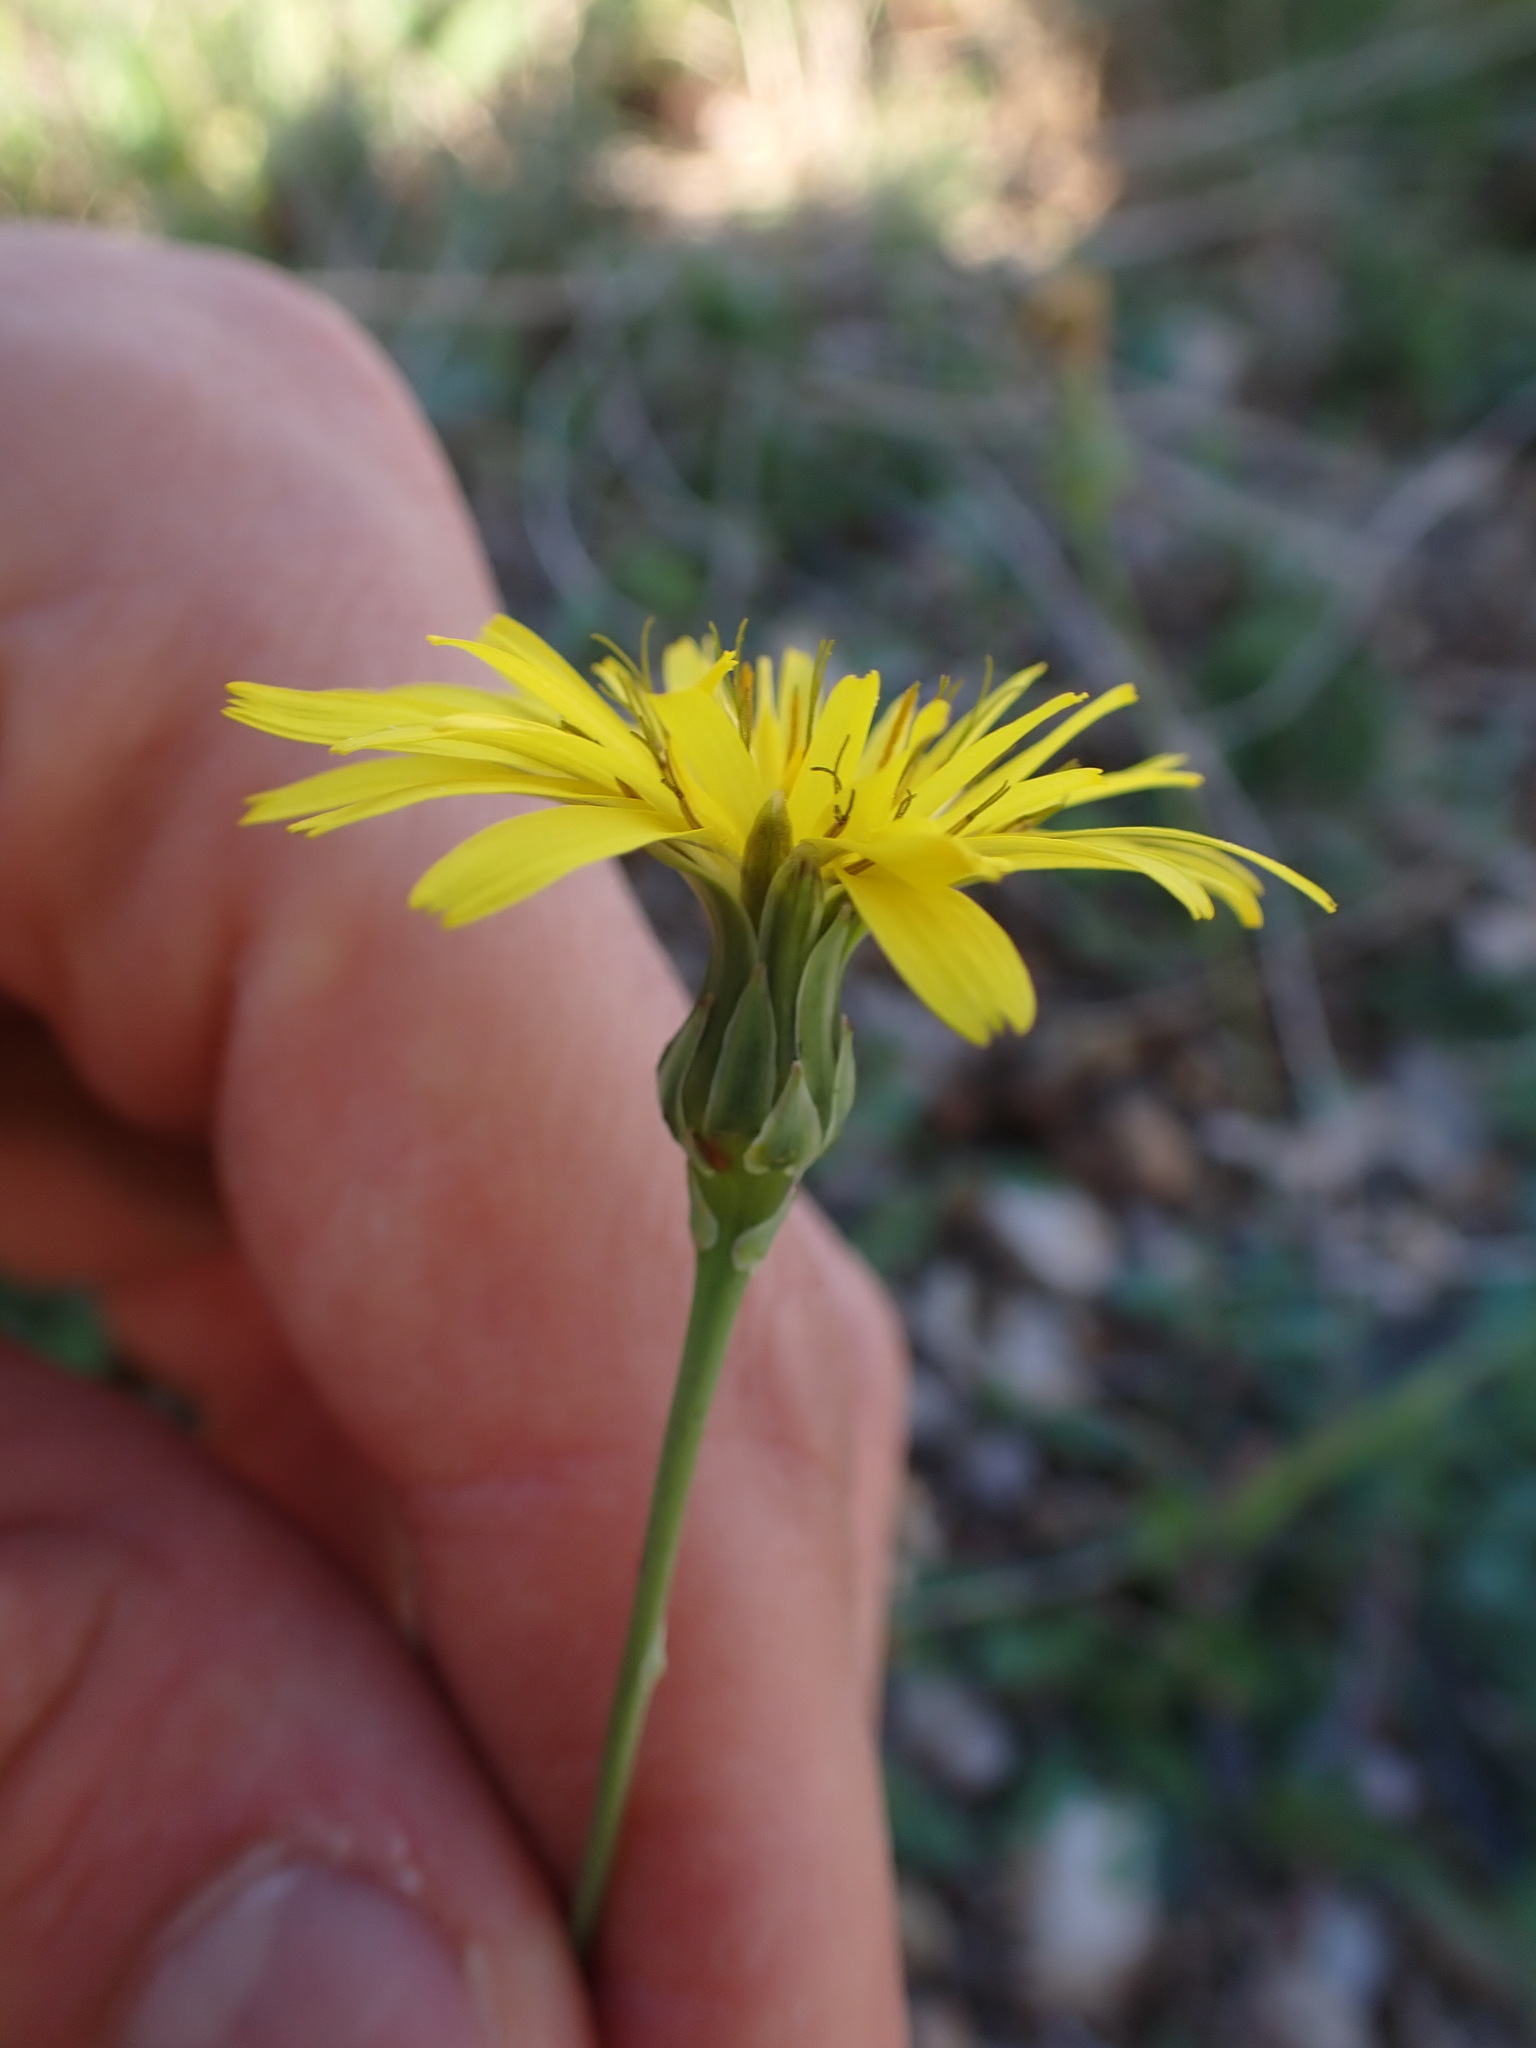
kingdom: Plantae
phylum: Tracheophyta
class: Magnoliopsida
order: Asterales
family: Asteraceae
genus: Reichardia
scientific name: Reichardia picroides
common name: Common brighteyes
